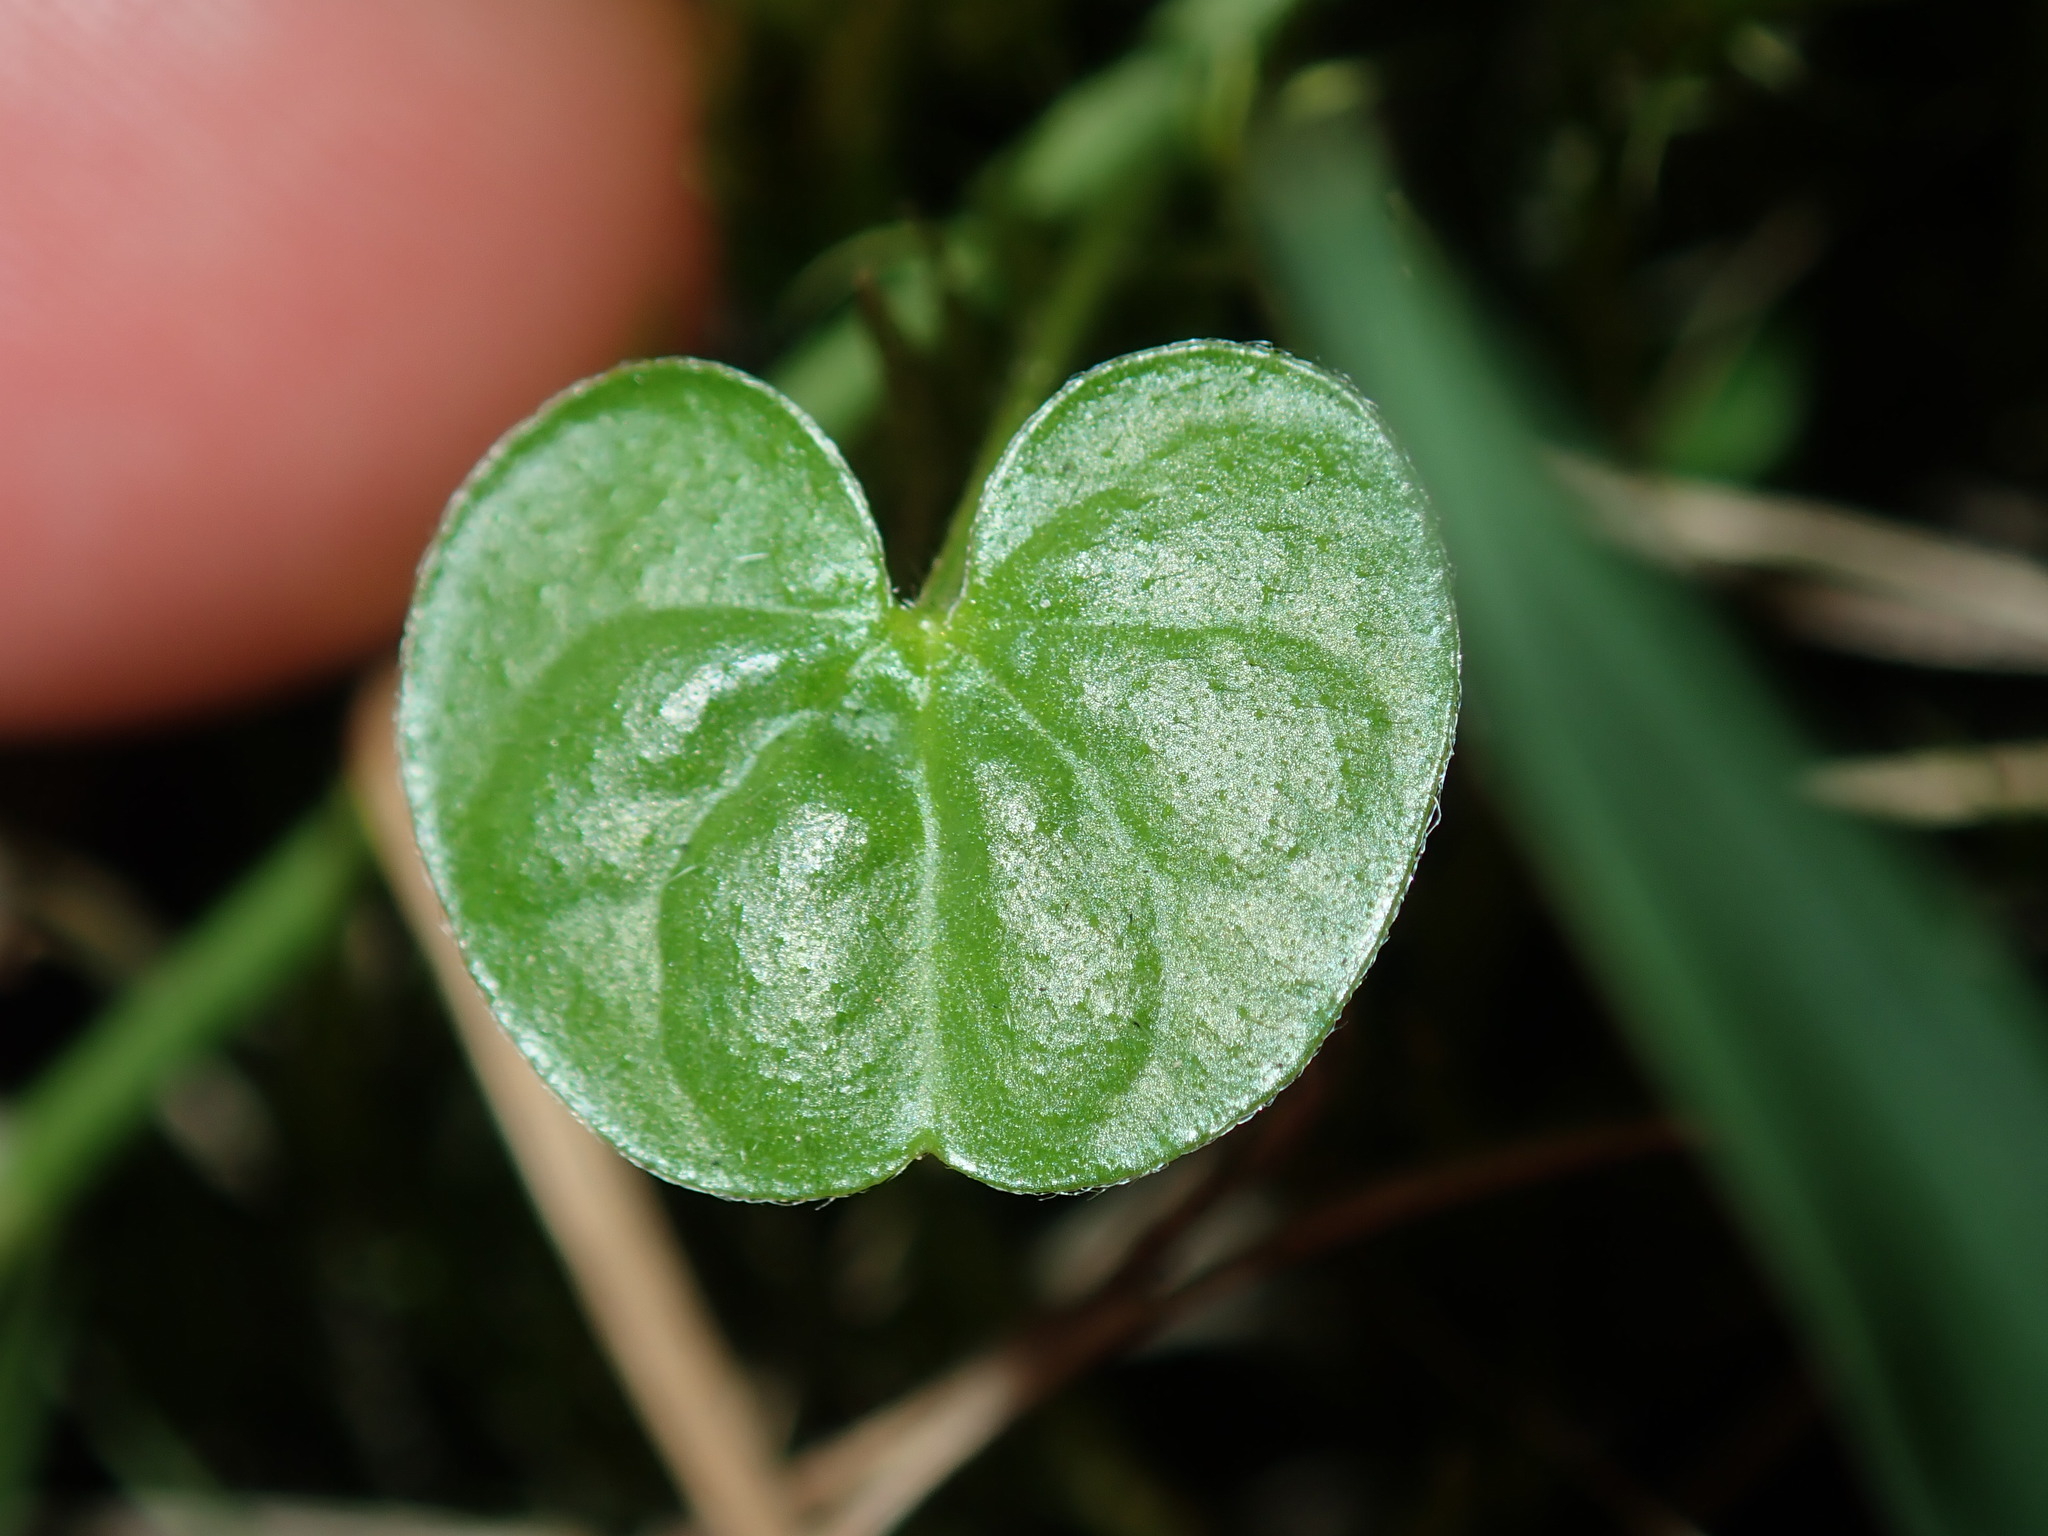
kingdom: Plantae
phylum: Tracheophyta
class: Magnoliopsida
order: Solanales
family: Convolvulaceae
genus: Dichondra
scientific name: Dichondra repens
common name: Kidneyweed
